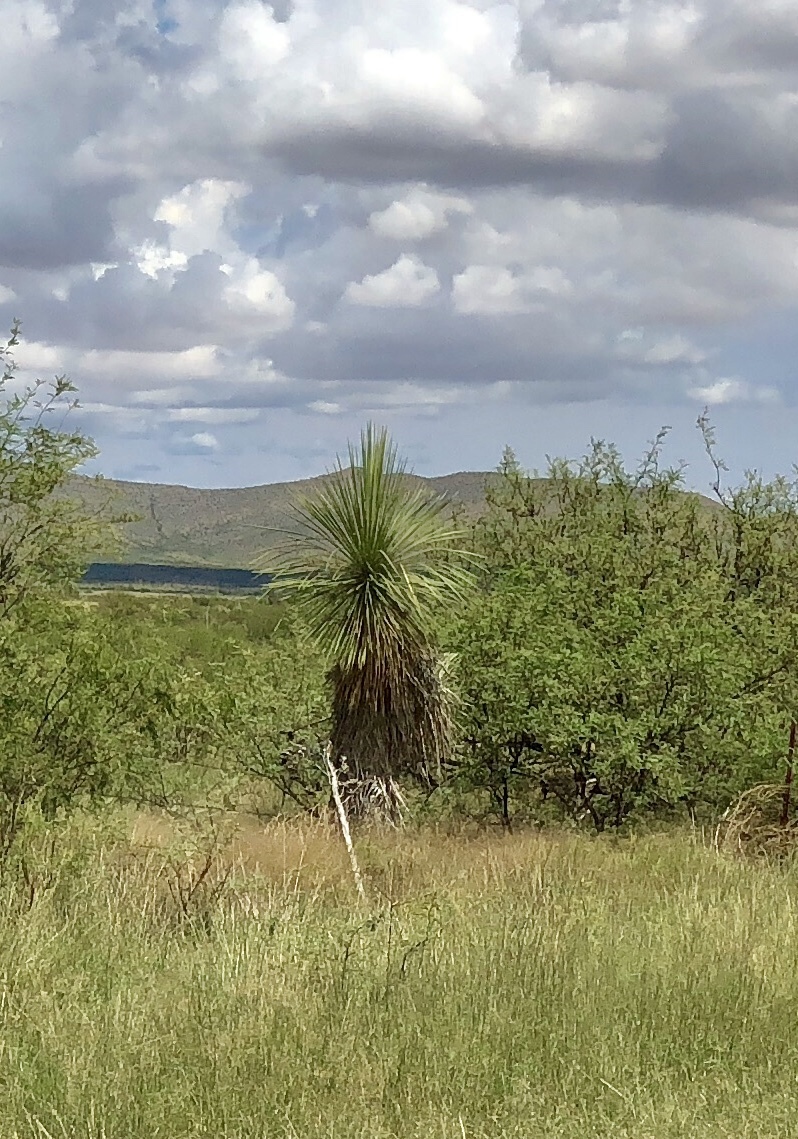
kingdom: Plantae
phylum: Tracheophyta
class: Liliopsida
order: Asparagales
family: Asparagaceae
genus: Yucca
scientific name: Yucca elata
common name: Palmella
